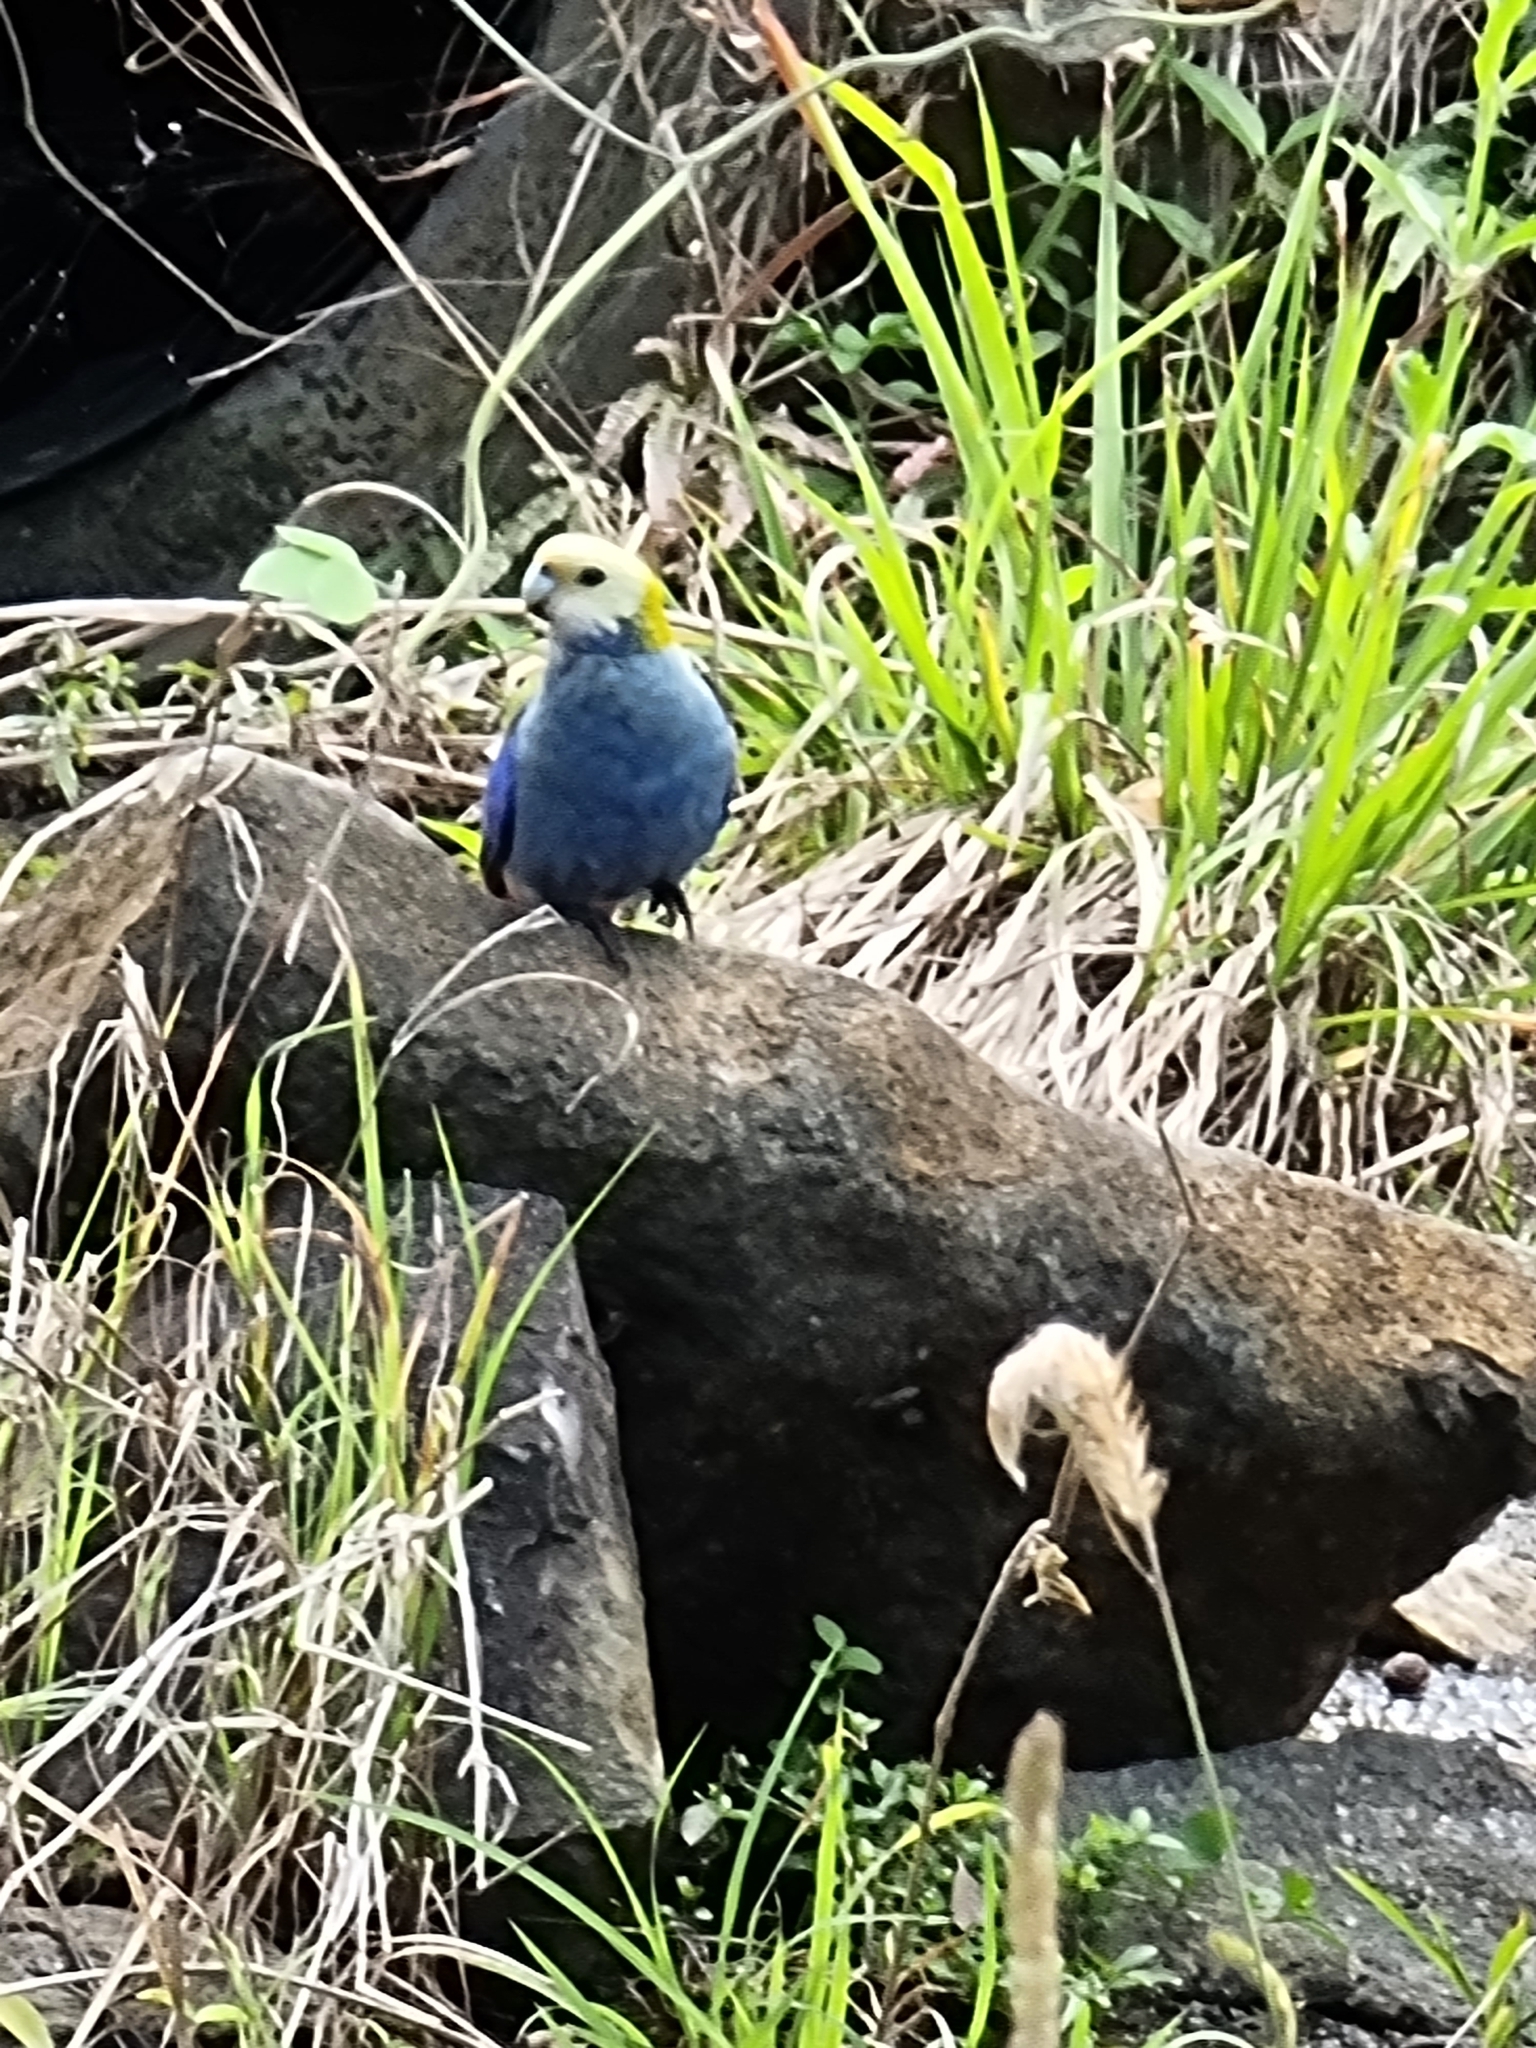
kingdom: Animalia
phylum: Chordata
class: Aves
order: Psittaciformes
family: Psittacidae
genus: Platycercus
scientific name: Platycercus adscitus
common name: Pale-headed rosella
